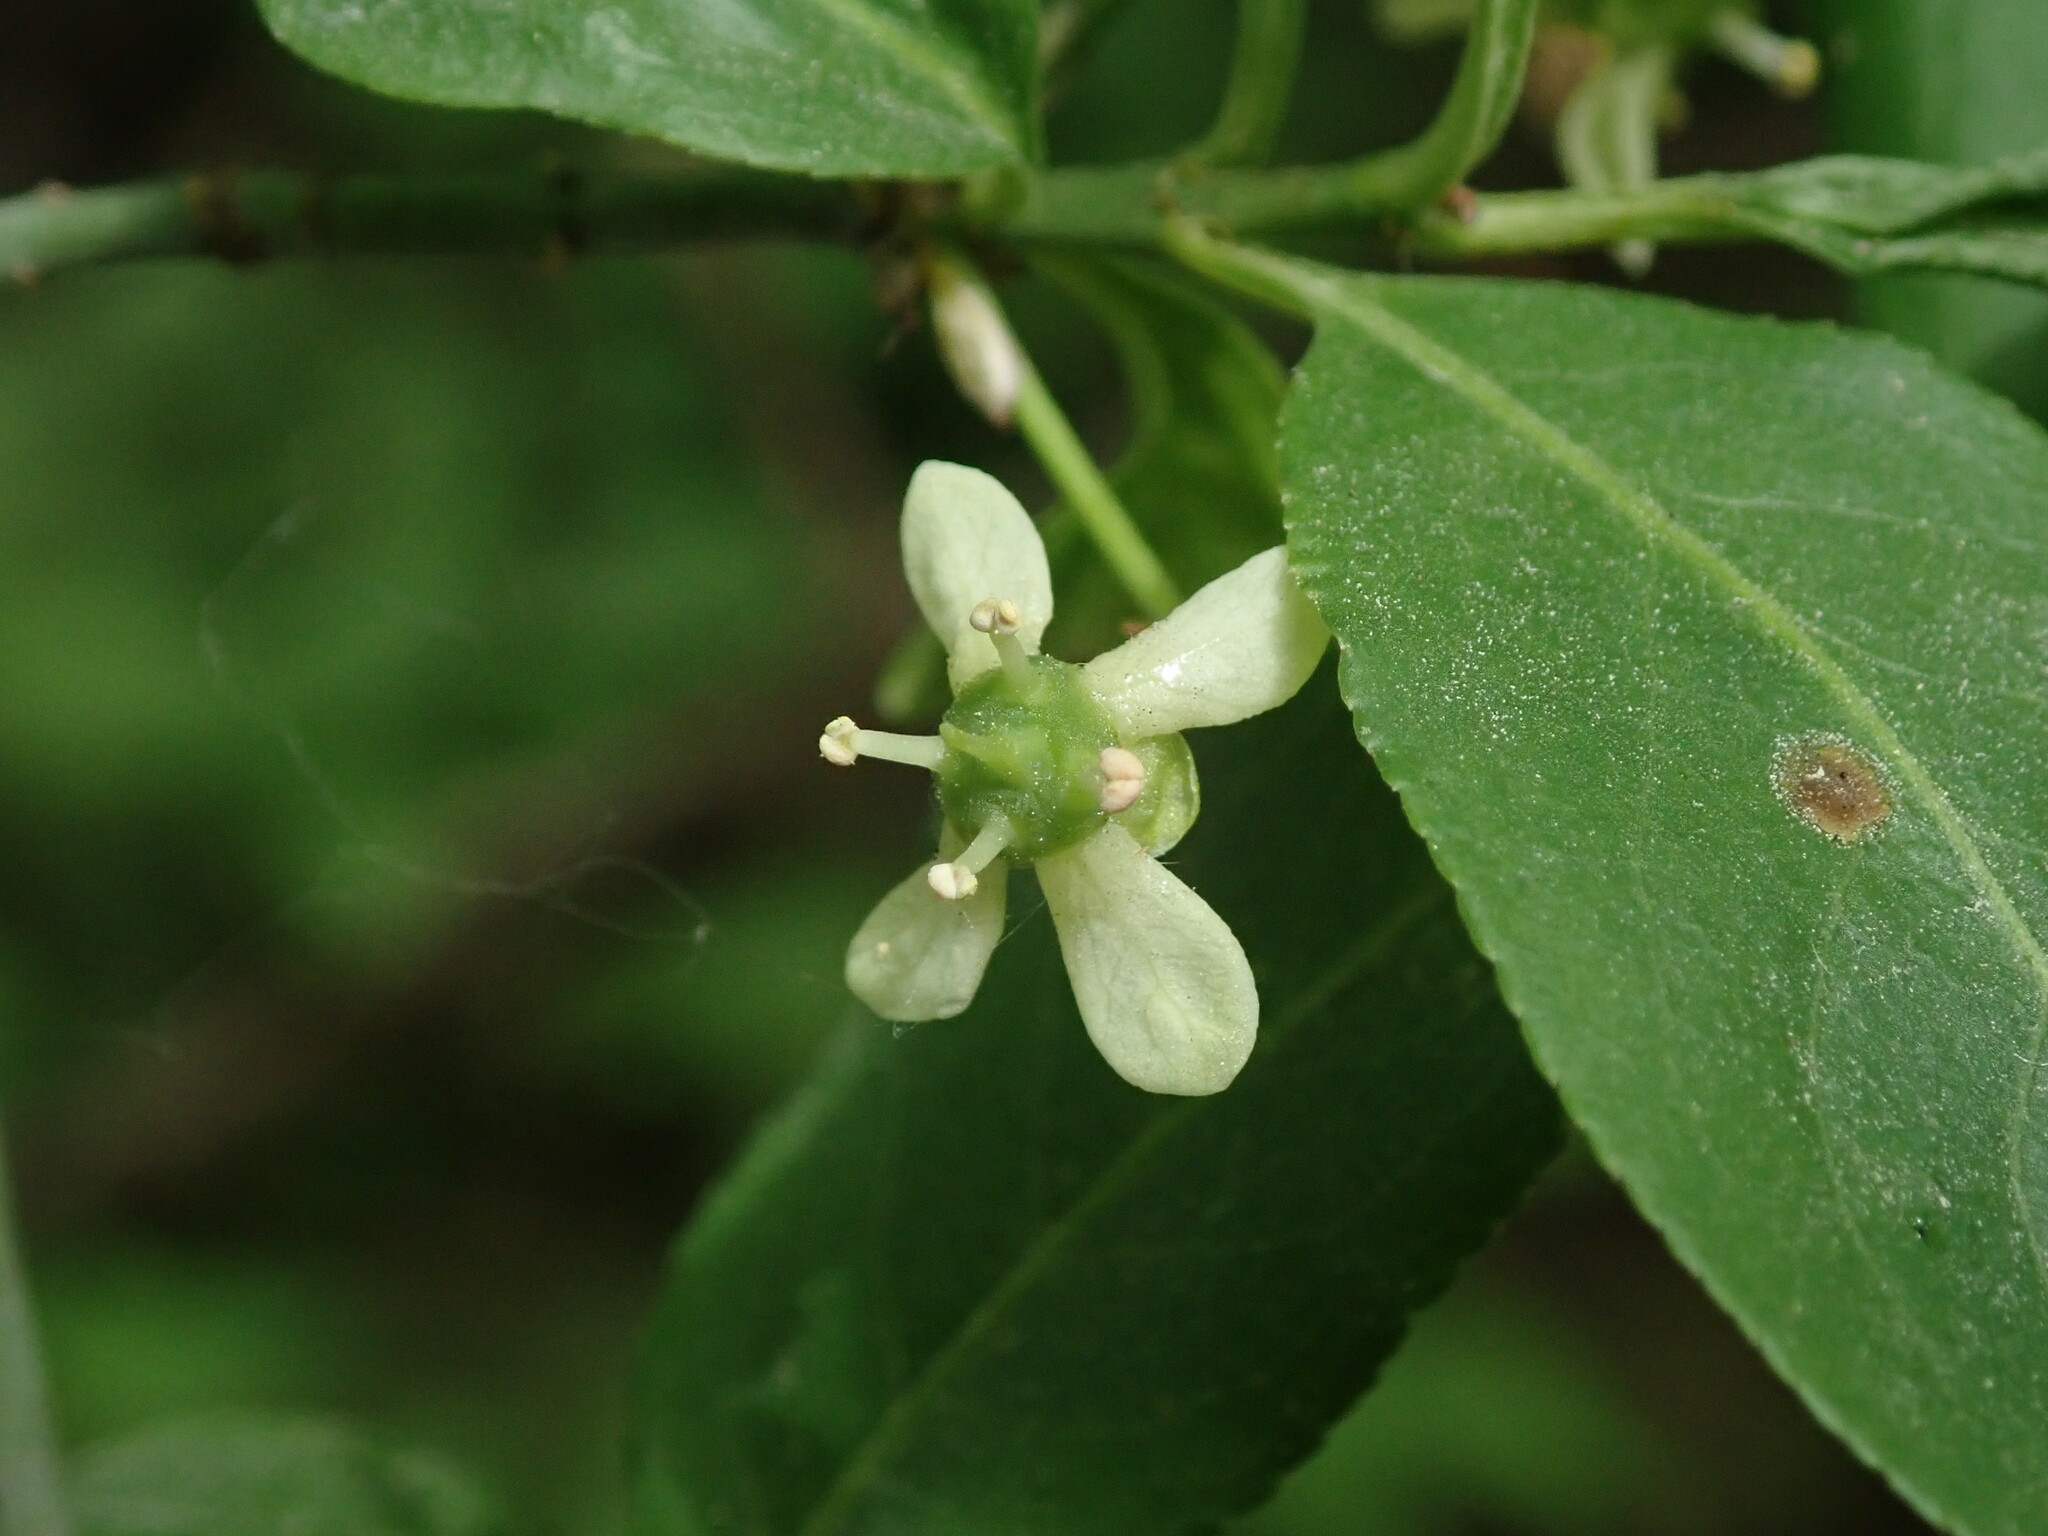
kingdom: Plantae
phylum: Tracheophyta
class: Magnoliopsida
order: Celastrales
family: Celastraceae
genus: Euonymus
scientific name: Euonymus europaeus
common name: Spindle
